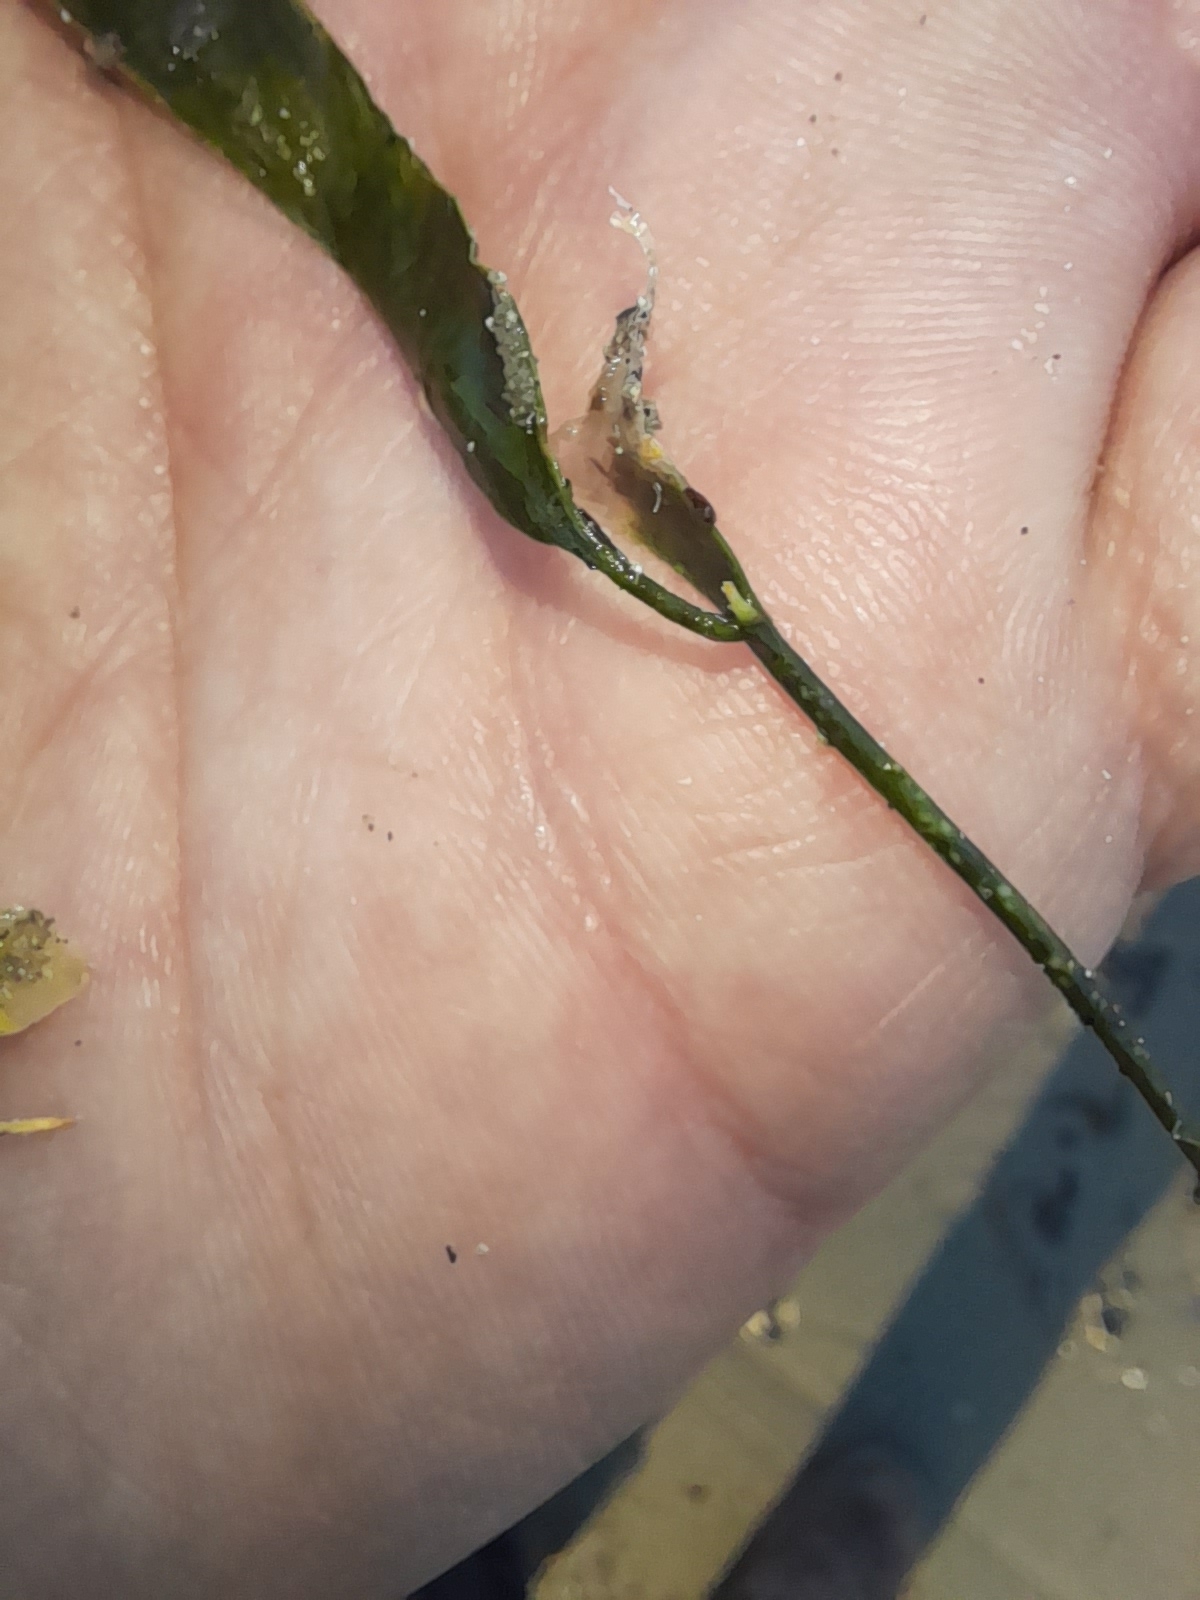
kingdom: Plantae
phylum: Chlorophyta
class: Ulvophyceae
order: Bryopsidales
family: Caulerpaceae
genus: Caulerpa
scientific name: Caulerpa prolifera
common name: Oval-blade algae
